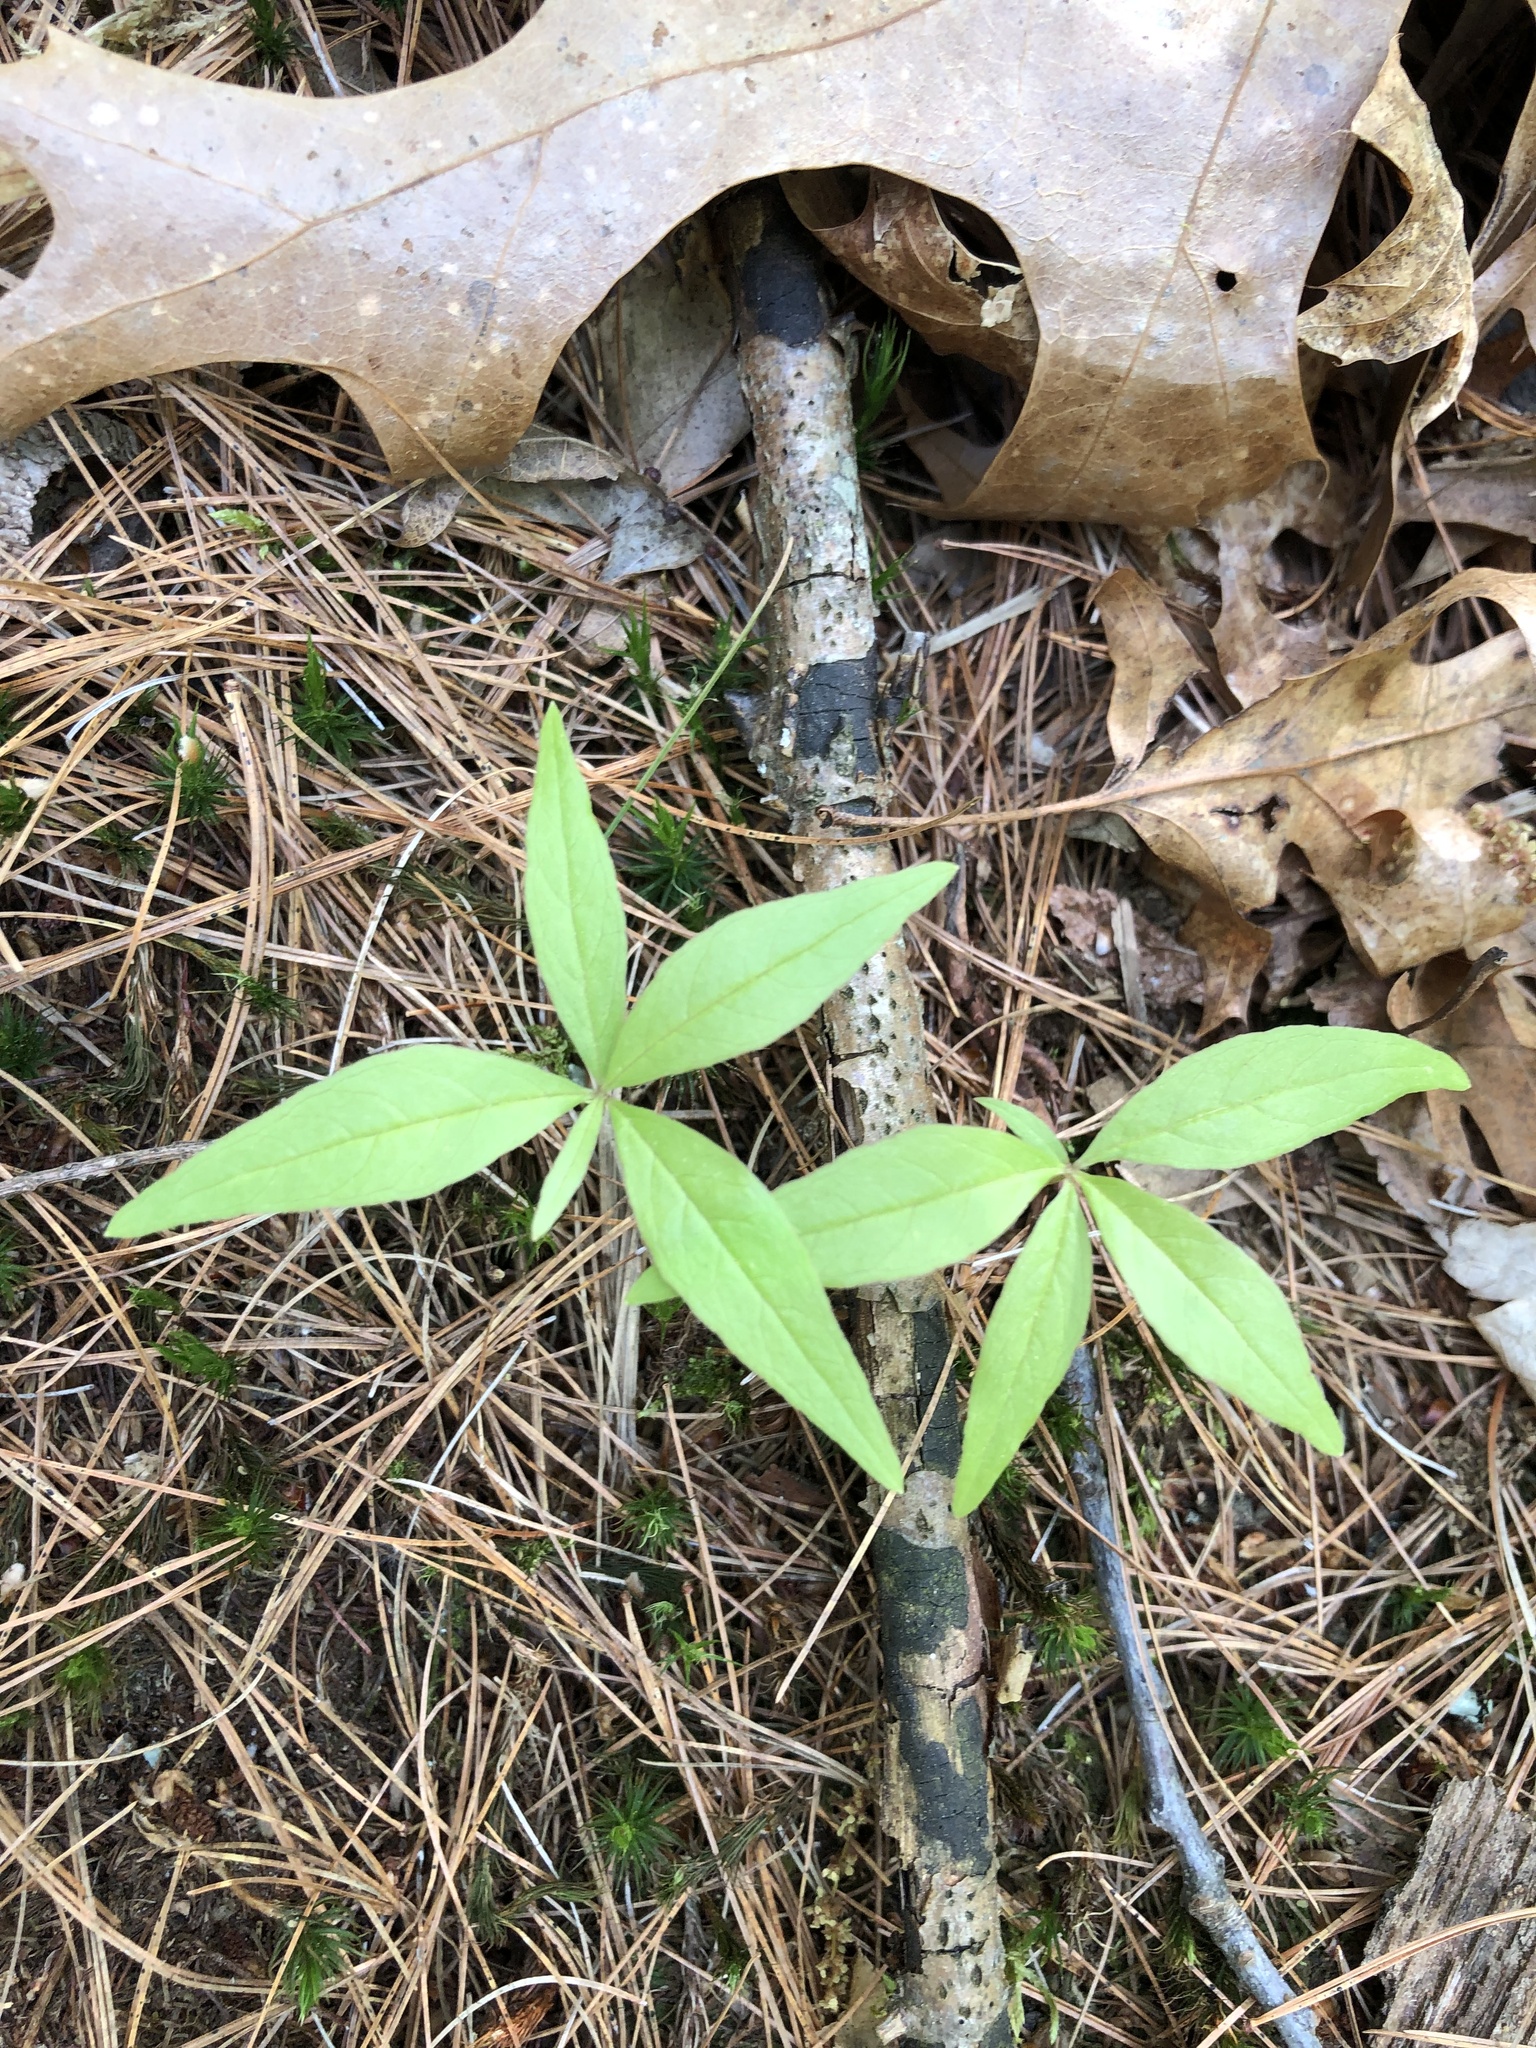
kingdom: Plantae
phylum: Tracheophyta
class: Magnoliopsida
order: Ericales
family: Primulaceae
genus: Lysimachia
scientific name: Lysimachia borealis
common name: American starflower
